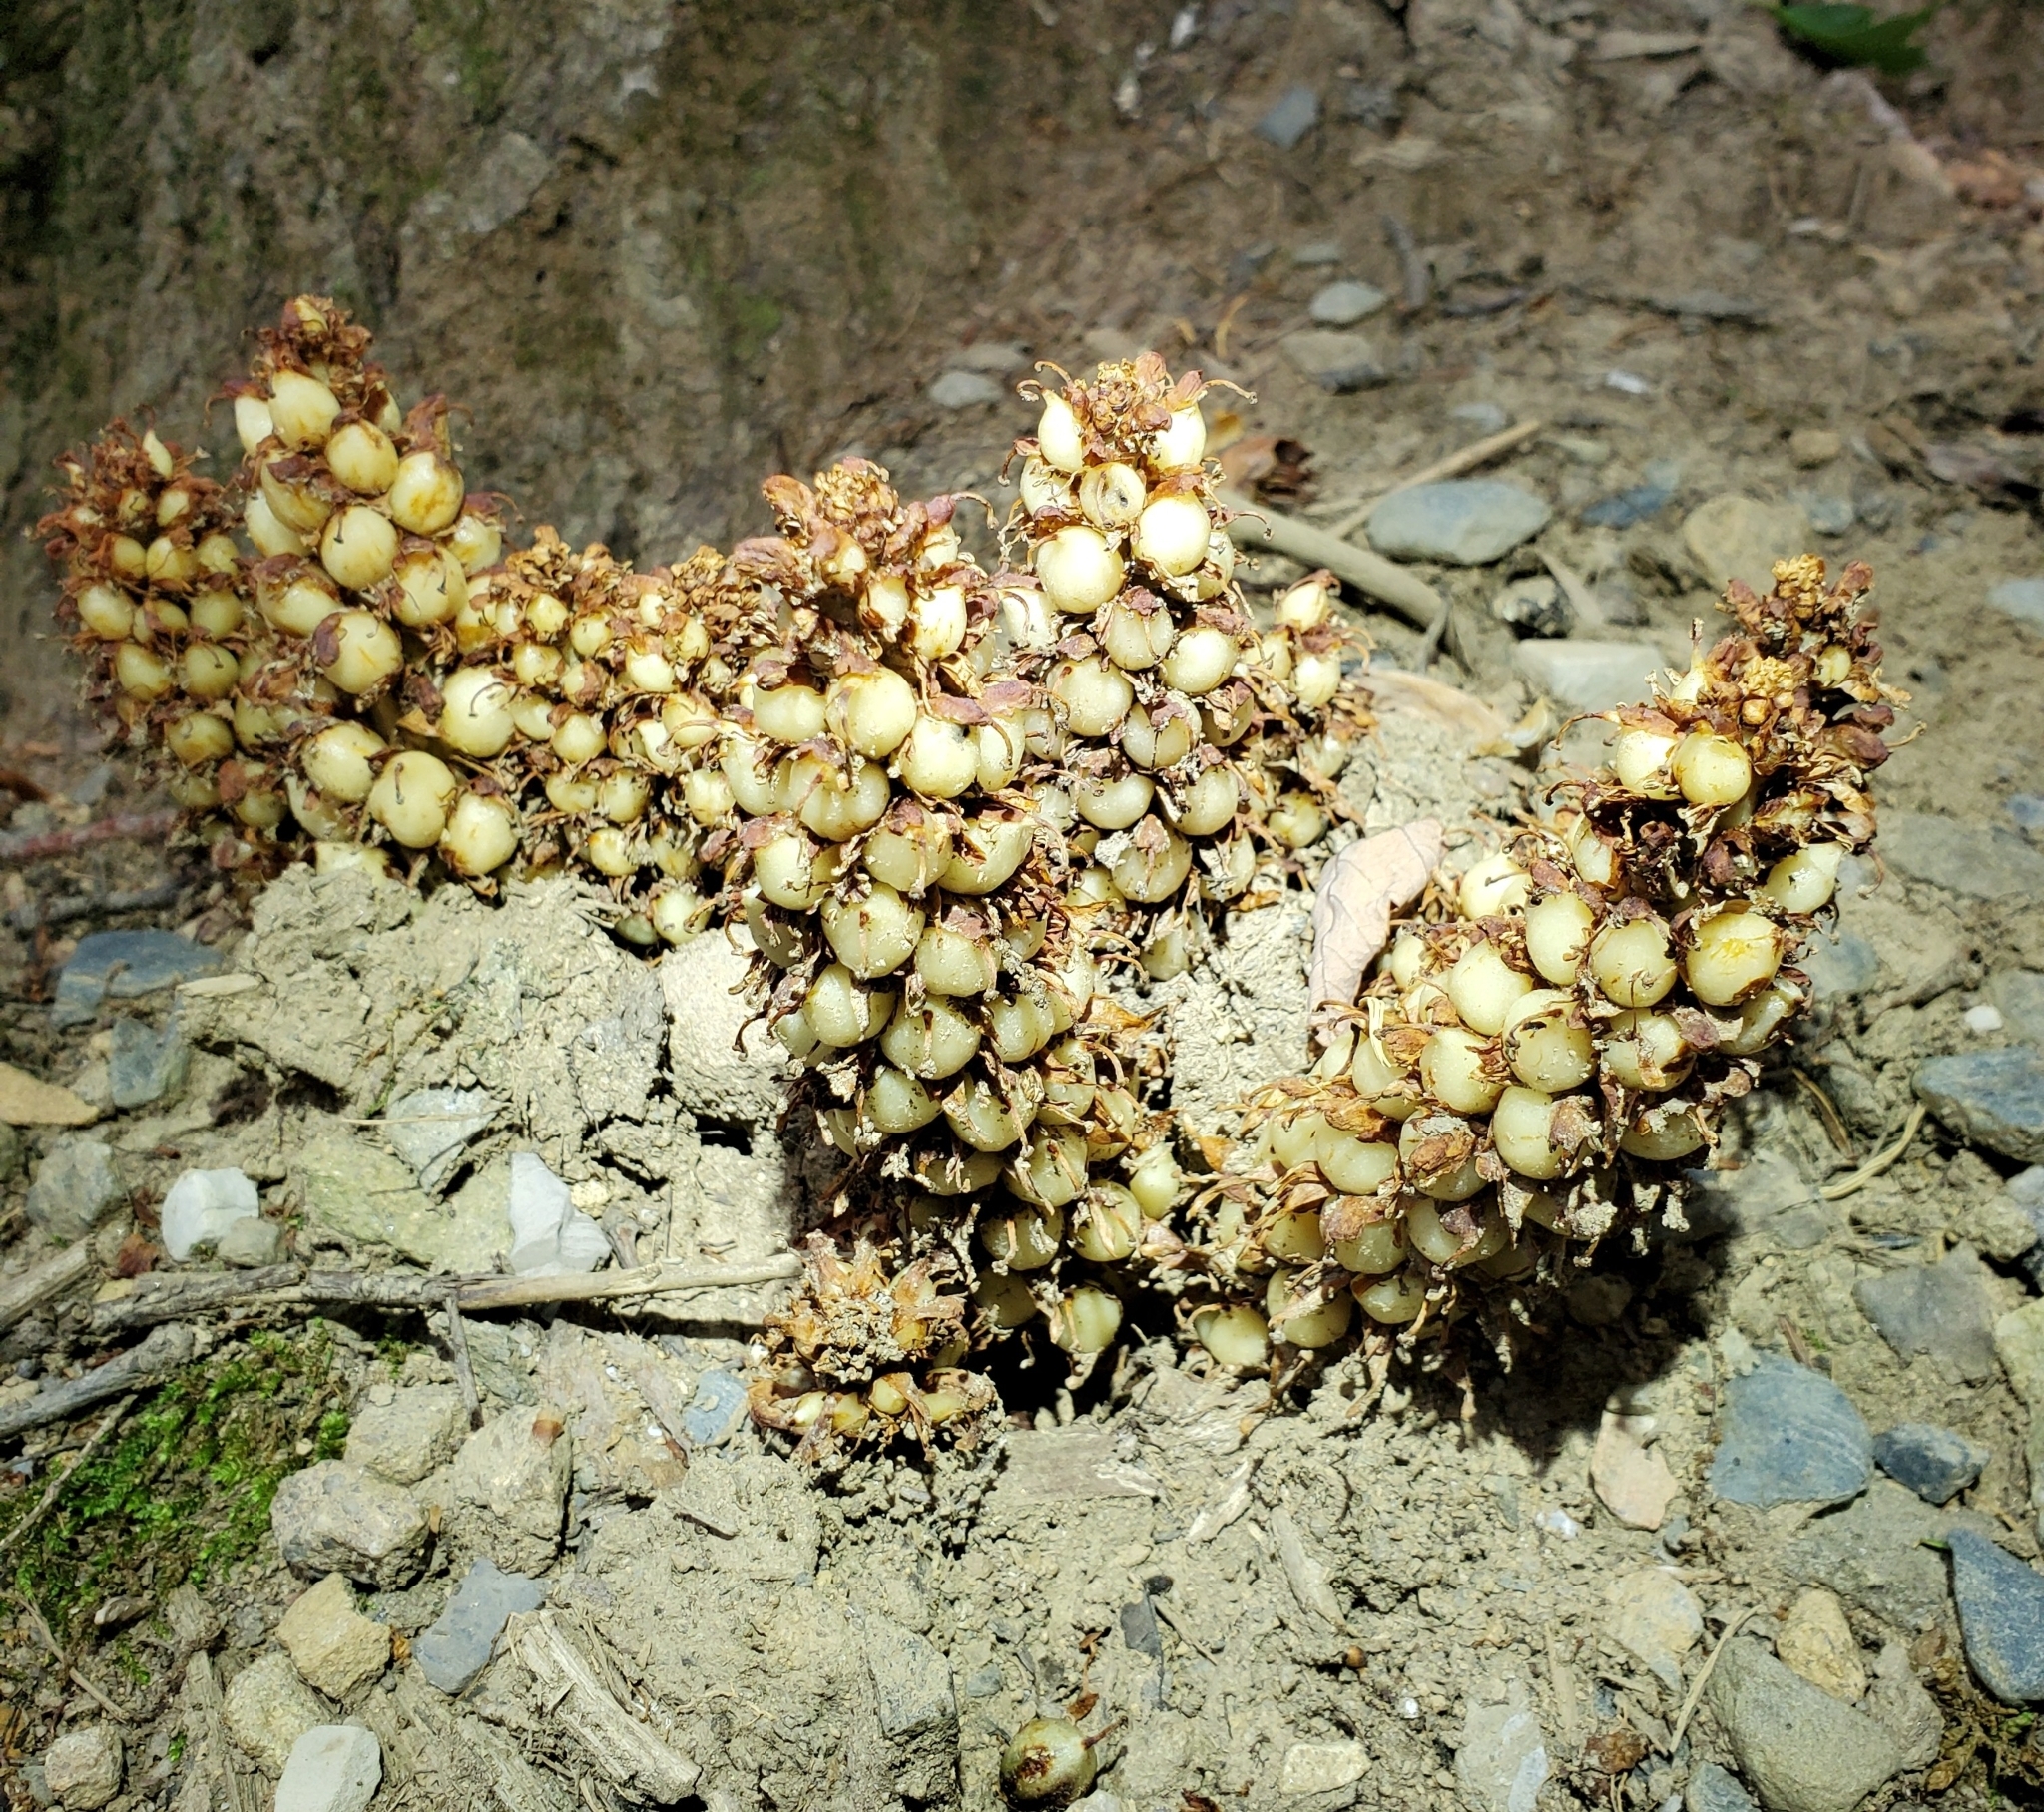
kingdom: Plantae
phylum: Tracheophyta
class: Magnoliopsida
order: Lamiales
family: Orobanchaceae
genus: Conopholis
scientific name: Conopholis americana
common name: American cancer-root
